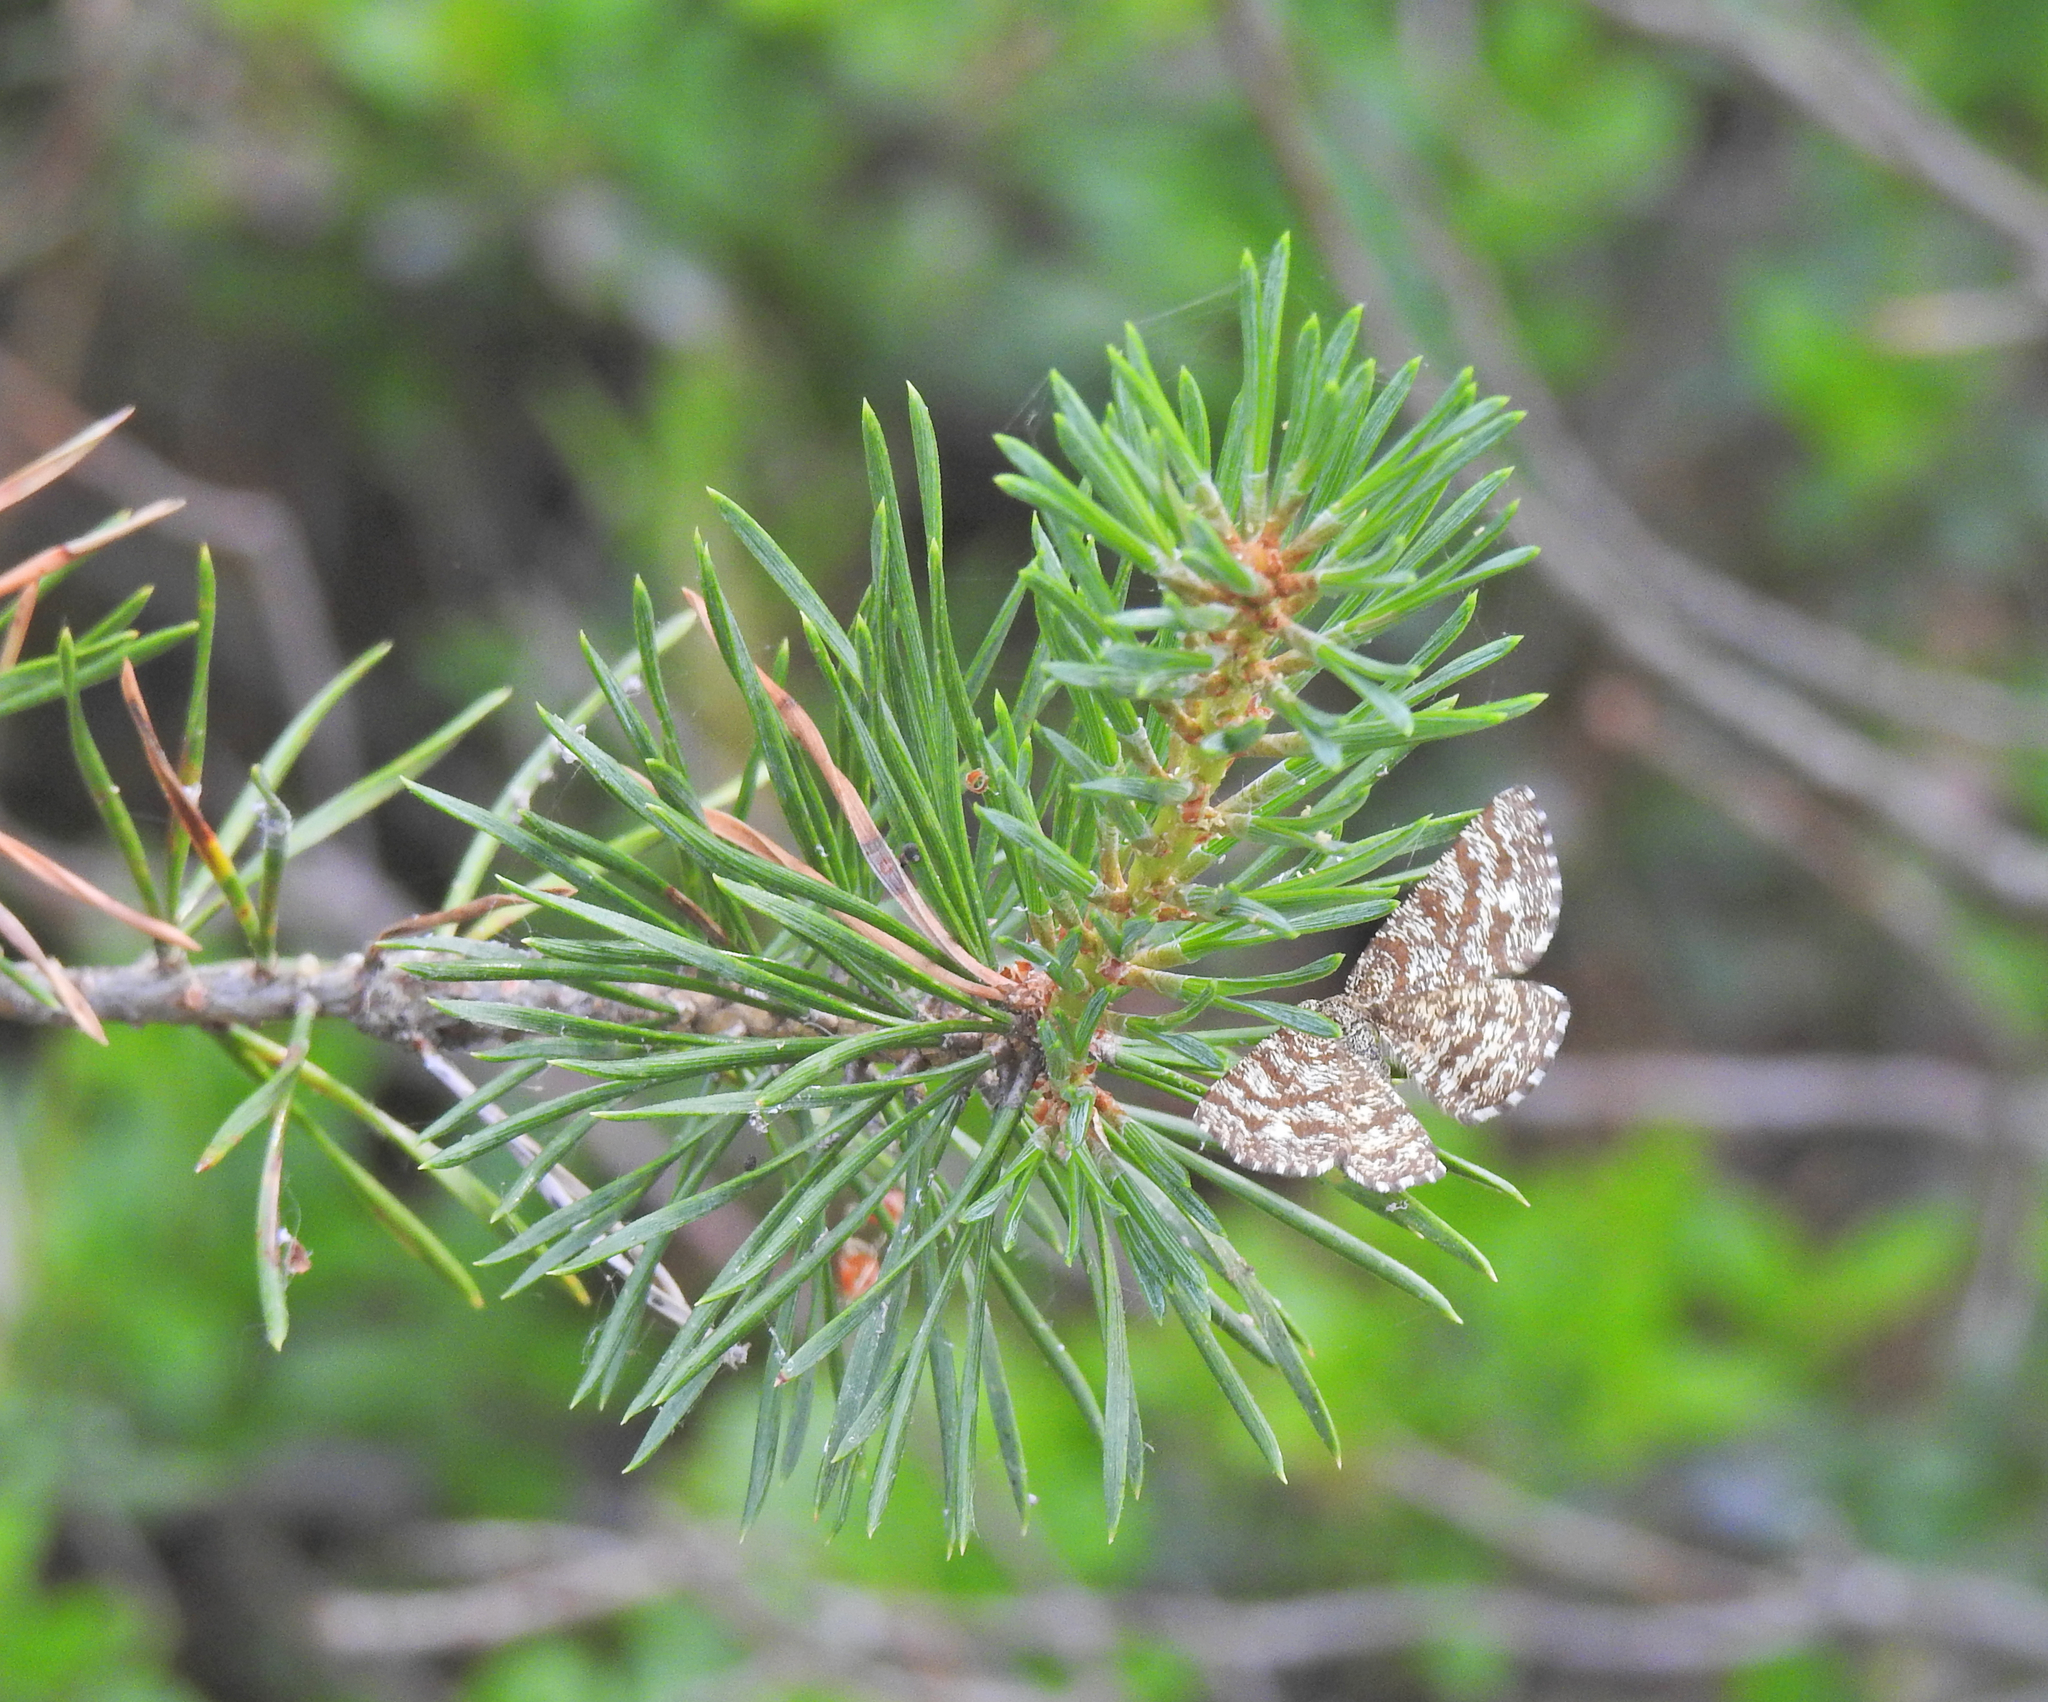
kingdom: Animalia
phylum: Arthropoda
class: Insecta
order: Lepidoptera
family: Geometridae
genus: Ematurga
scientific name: Ematurga atomaria
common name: Common heath
